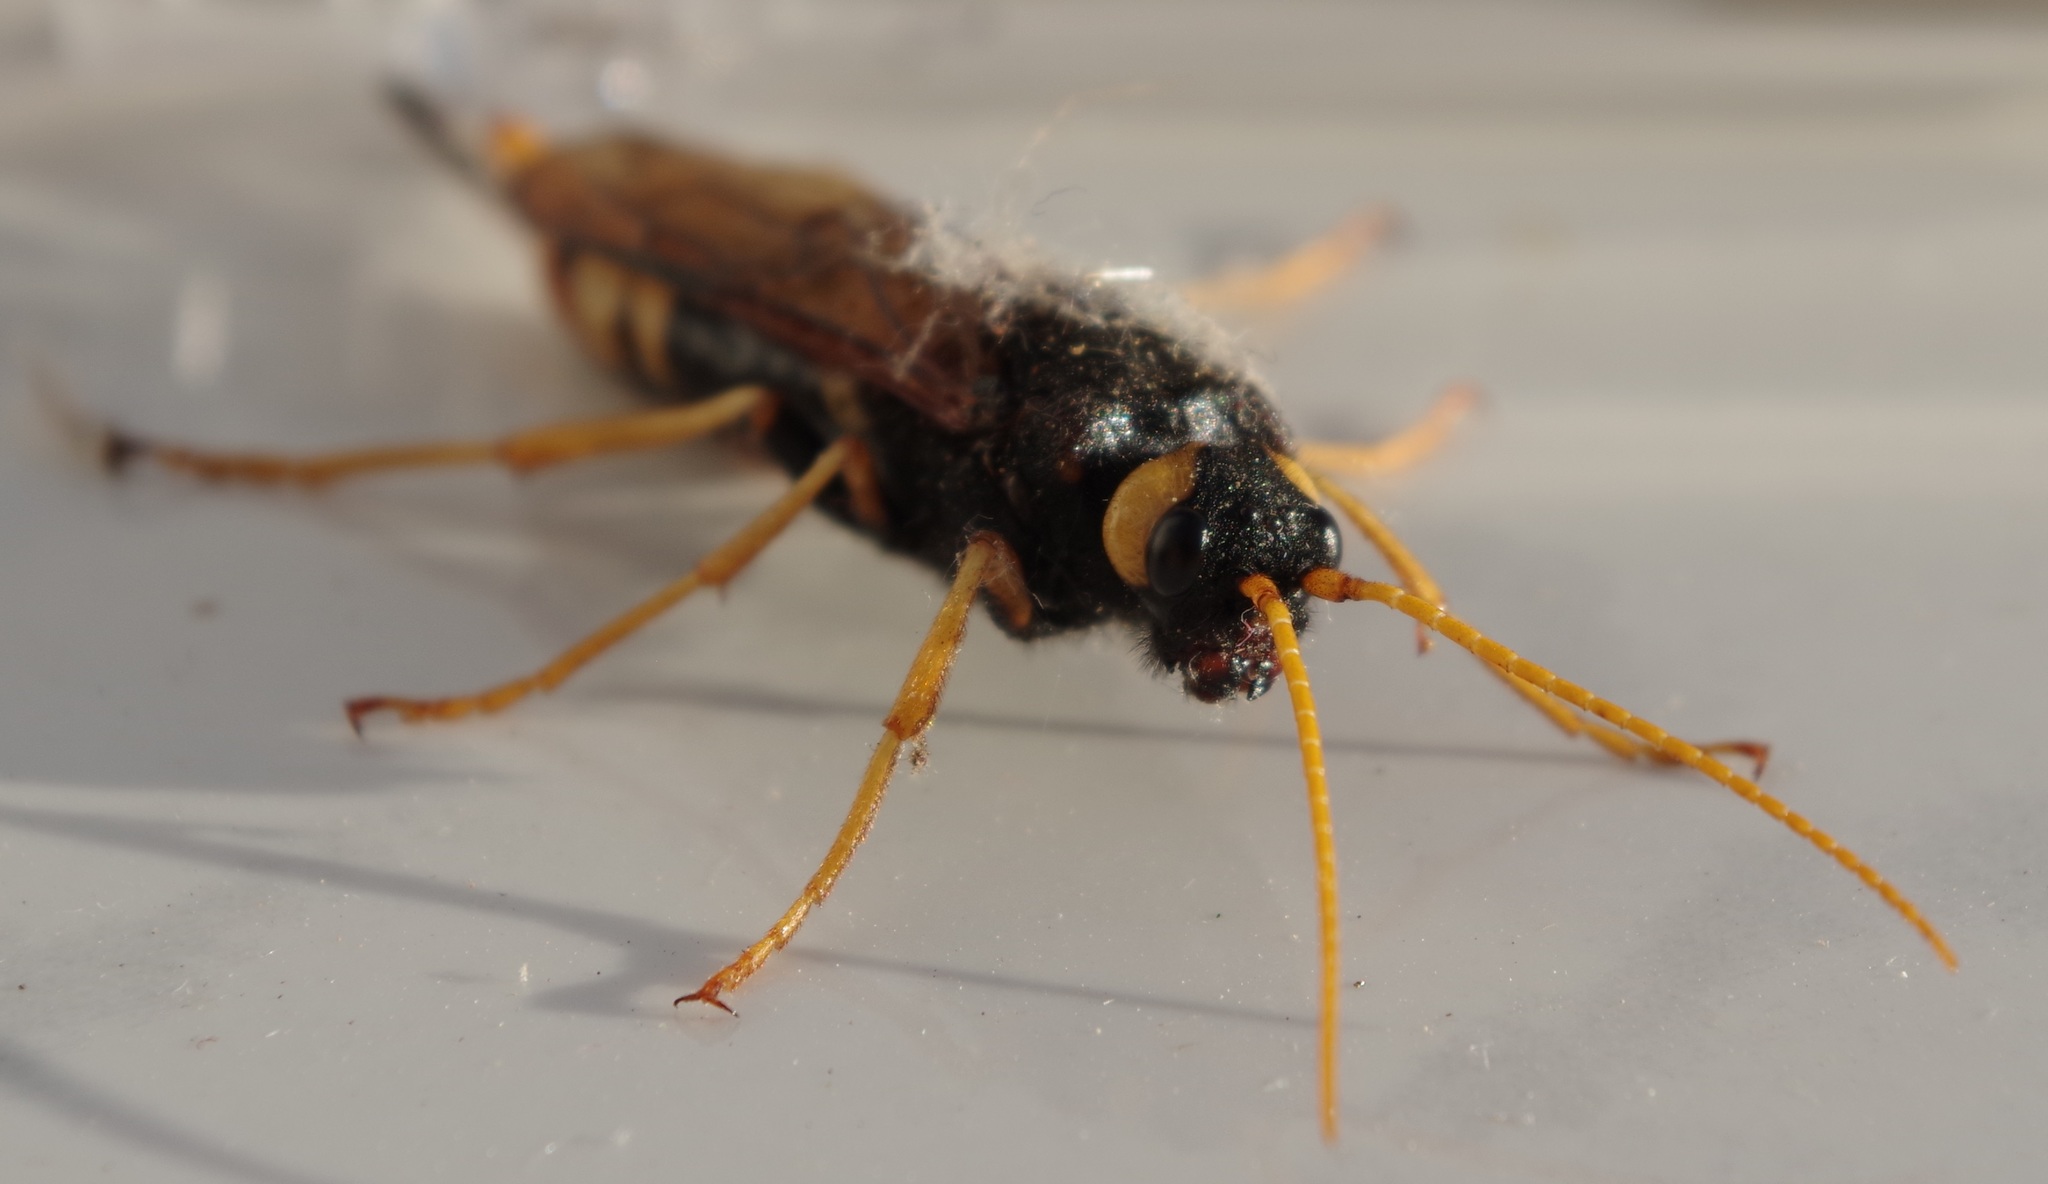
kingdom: Animalia
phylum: Arthropoda
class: Insecta
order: Hymenoptera
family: Siricidae
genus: Urocerus
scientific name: Urocerus gigas
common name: Giant woodwasp
